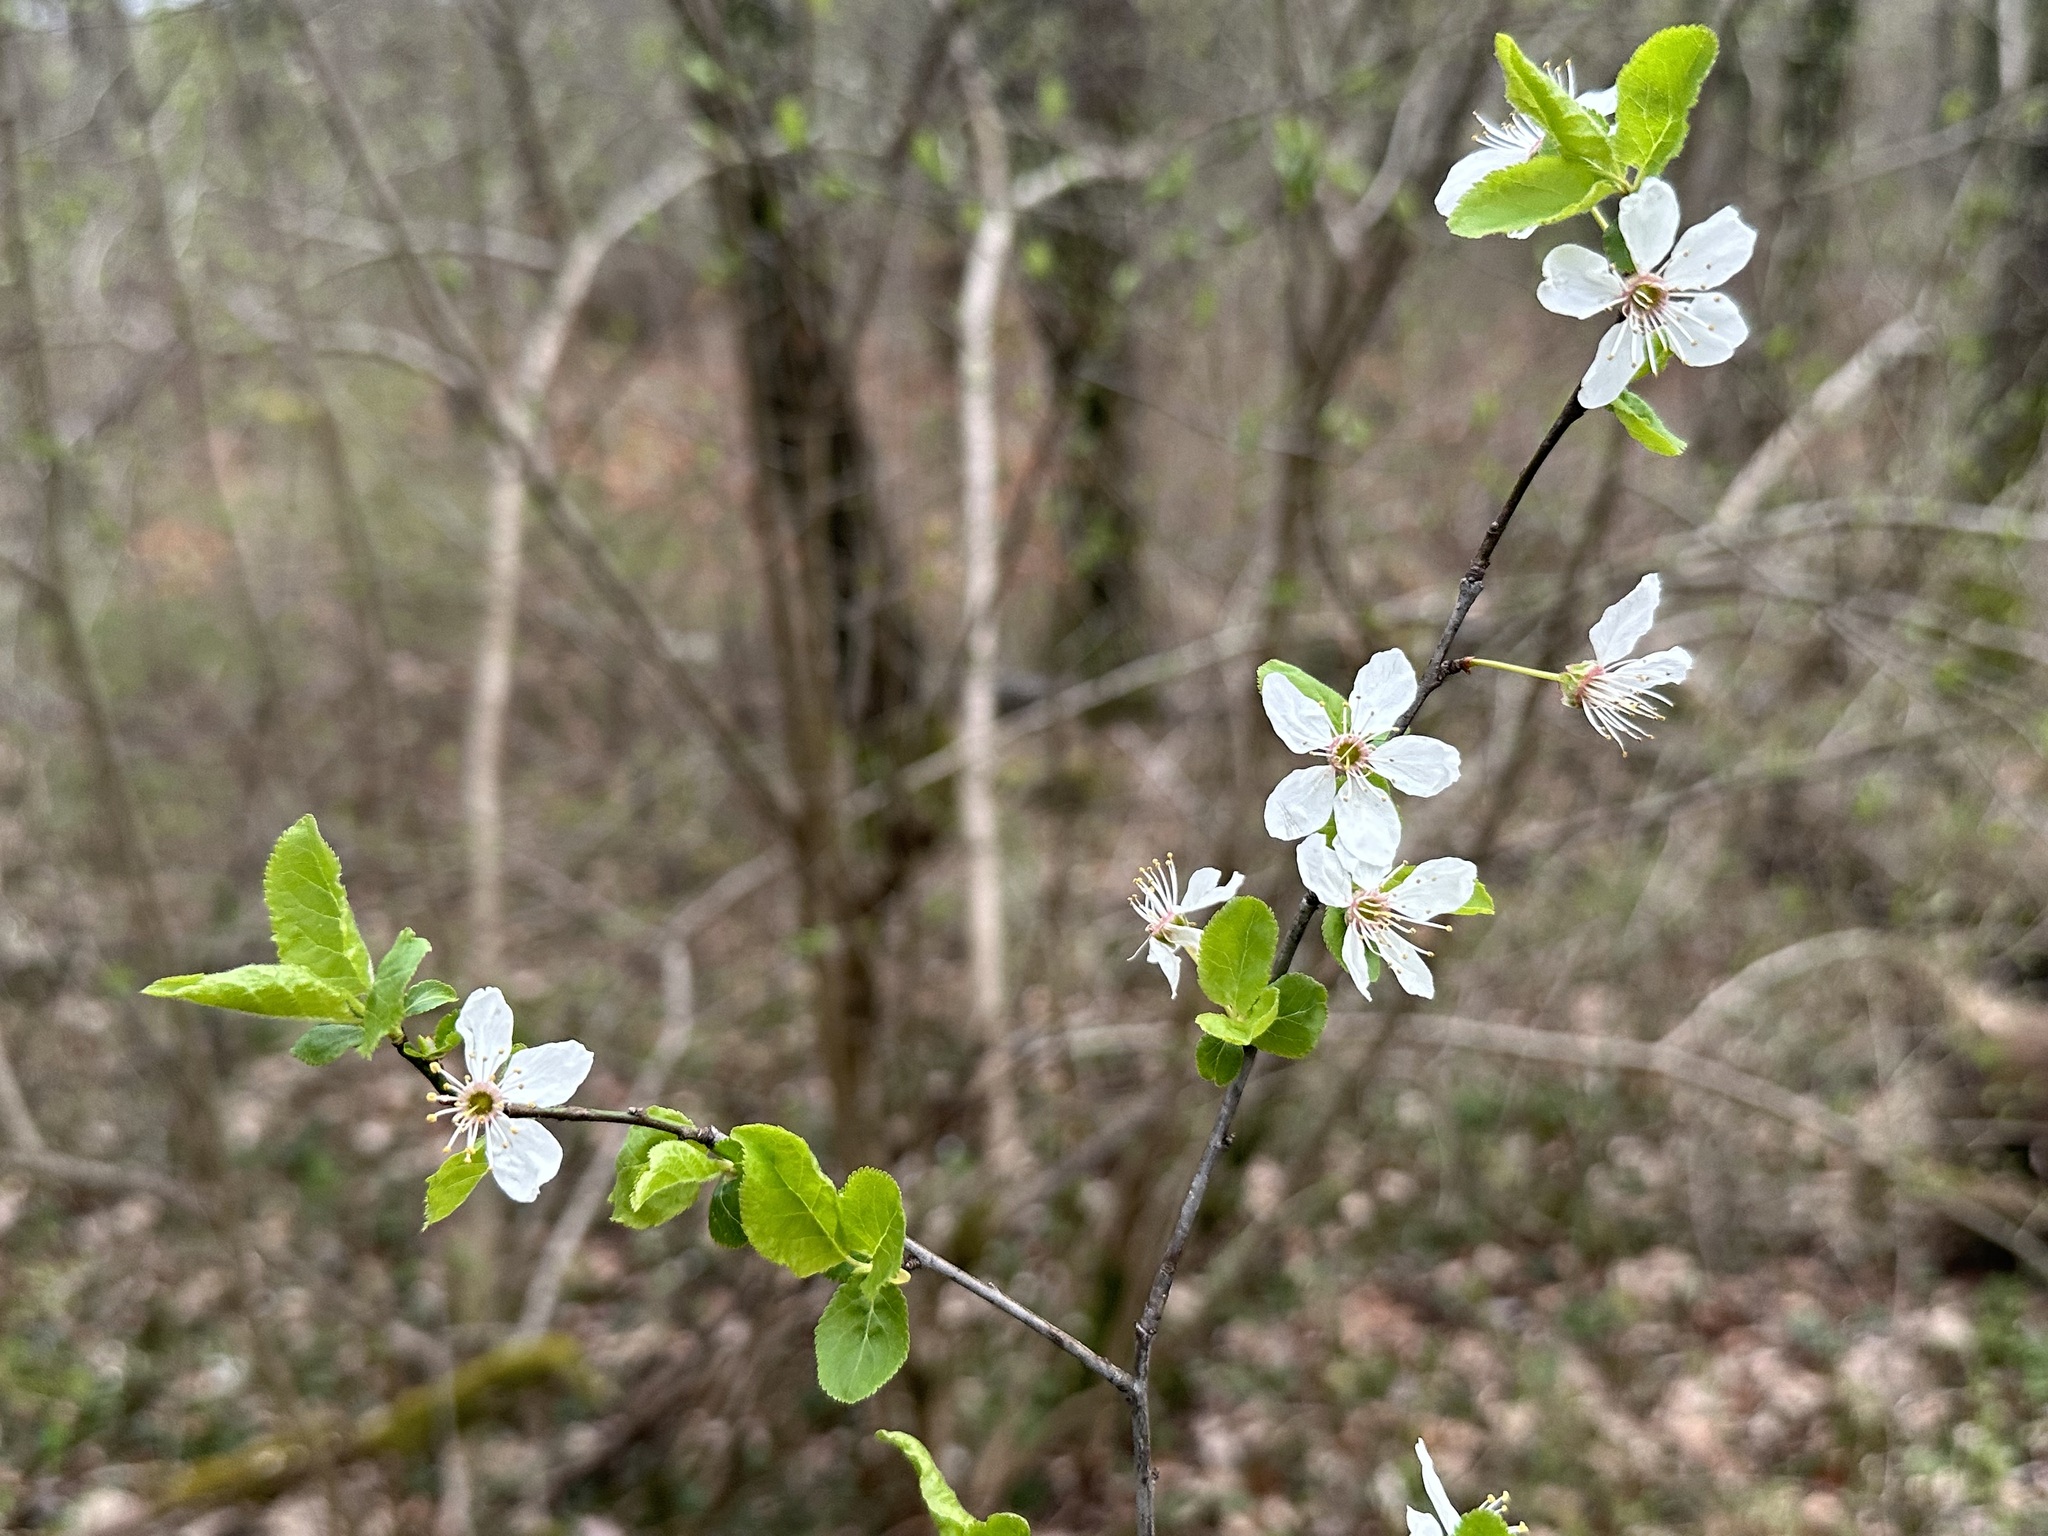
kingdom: Plantae
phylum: Tracheophyta
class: Magnoliopsida
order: Rosales
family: Rosaceae
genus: Prunus
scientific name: Prunus cerasifera
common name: Cherry plum
